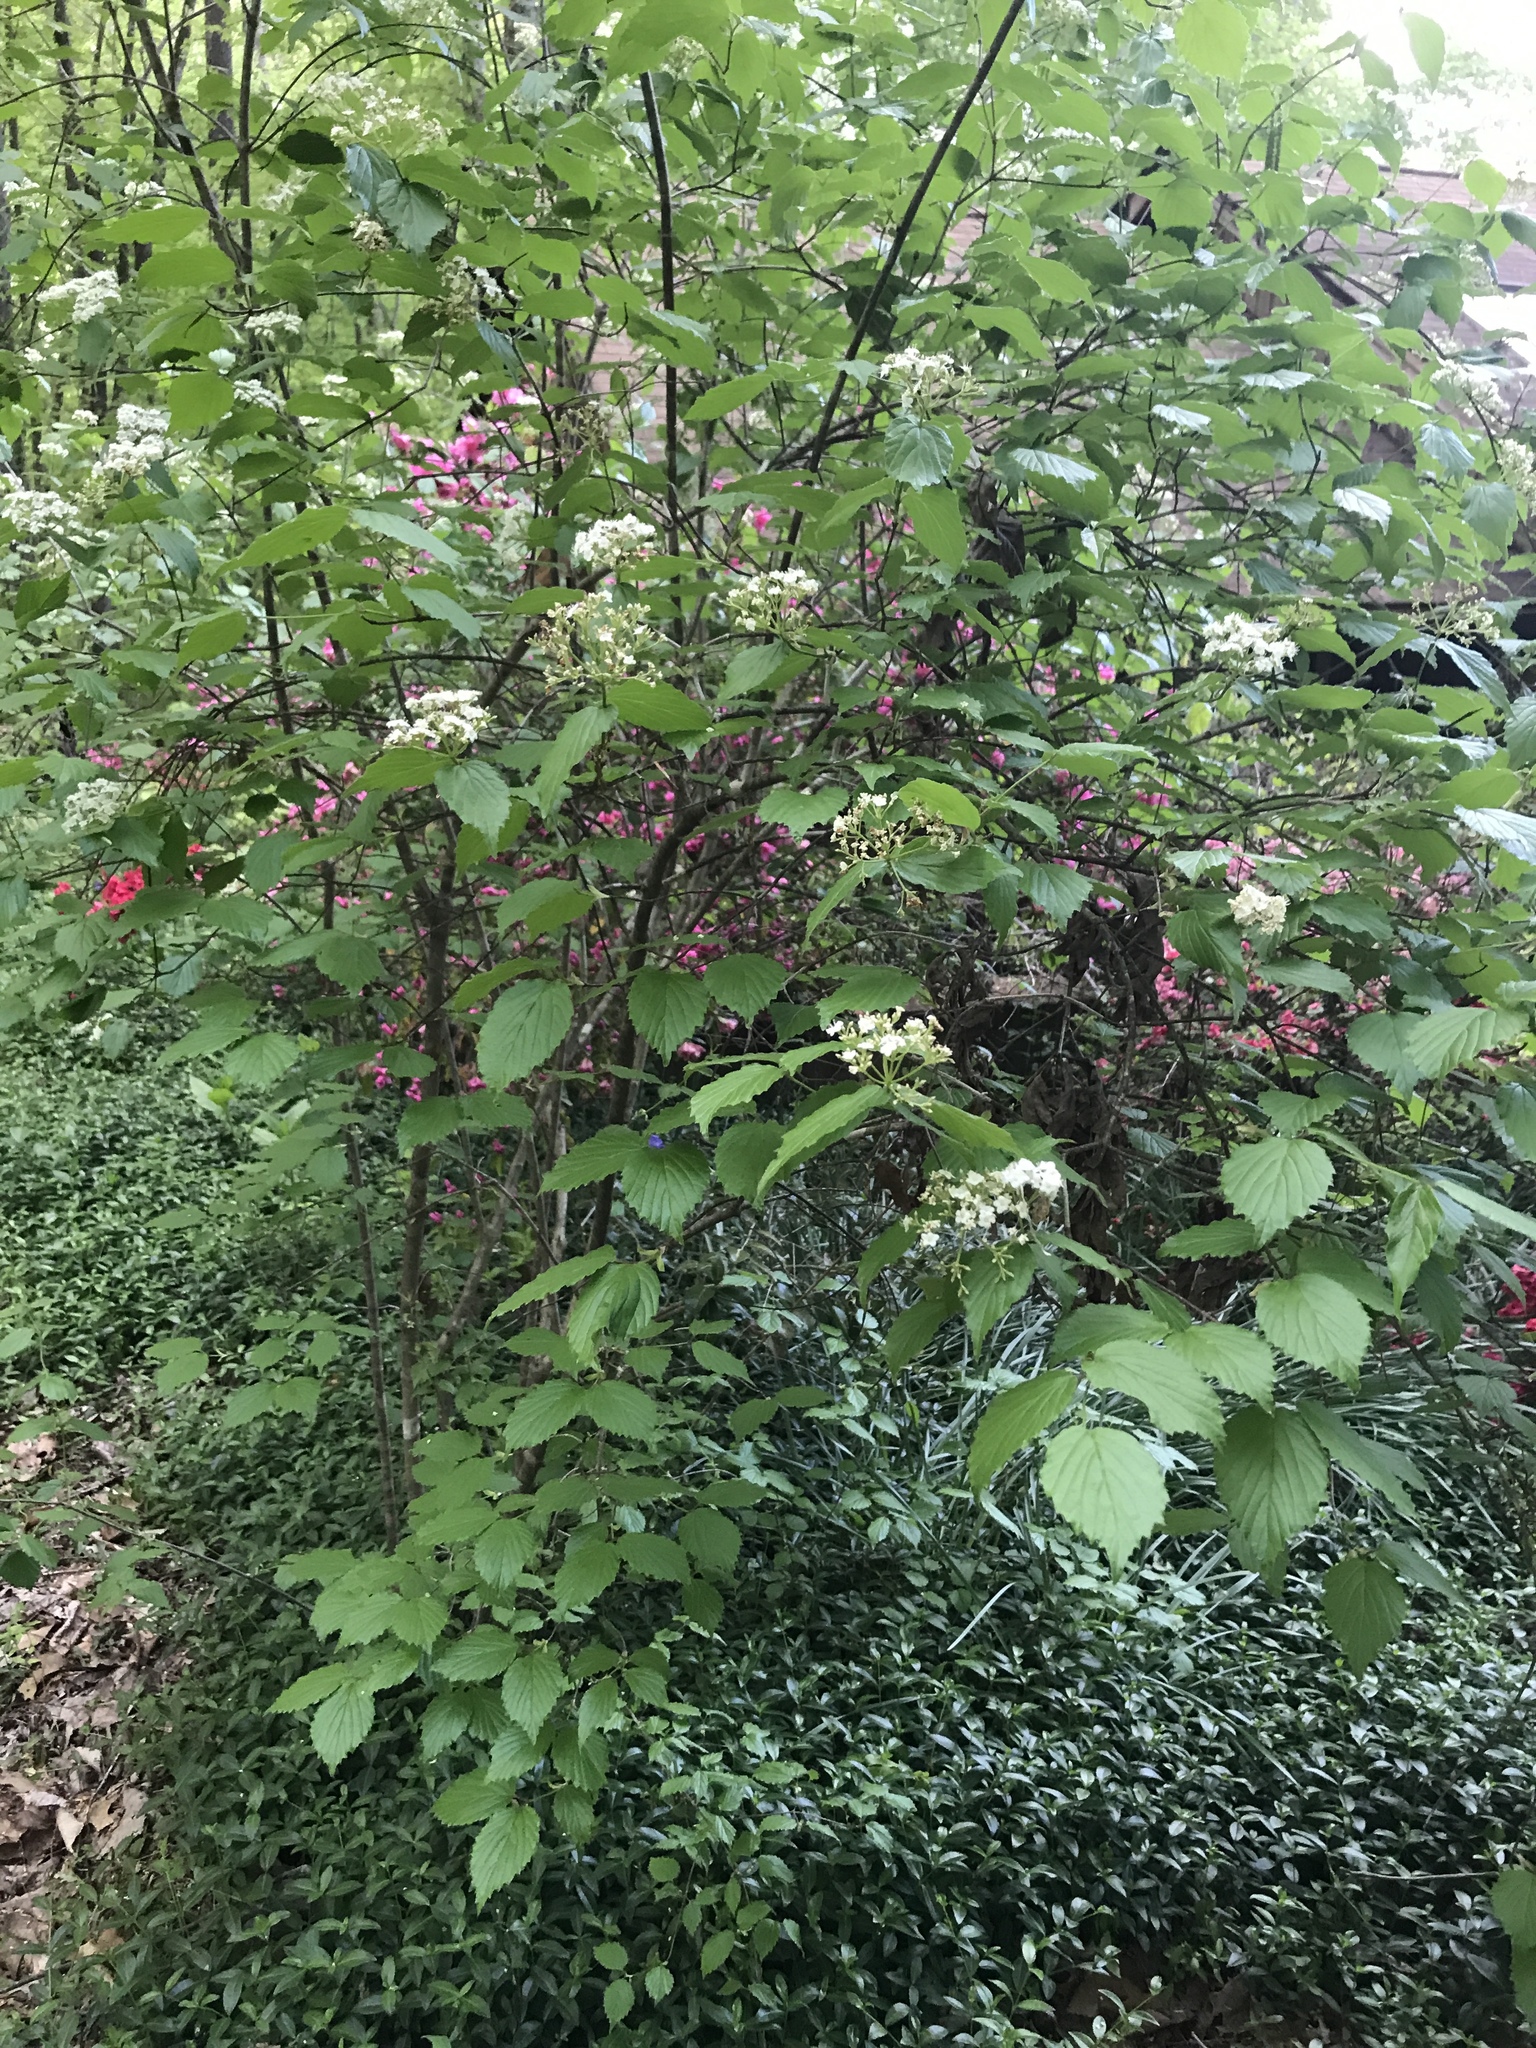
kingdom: Plantae
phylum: Tracheophyta
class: Magnoliopsida
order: Dipsacales
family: Viburnaceae
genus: Viburnum
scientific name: Viburnum rafinesqueanum
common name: Downy arrow-wood
